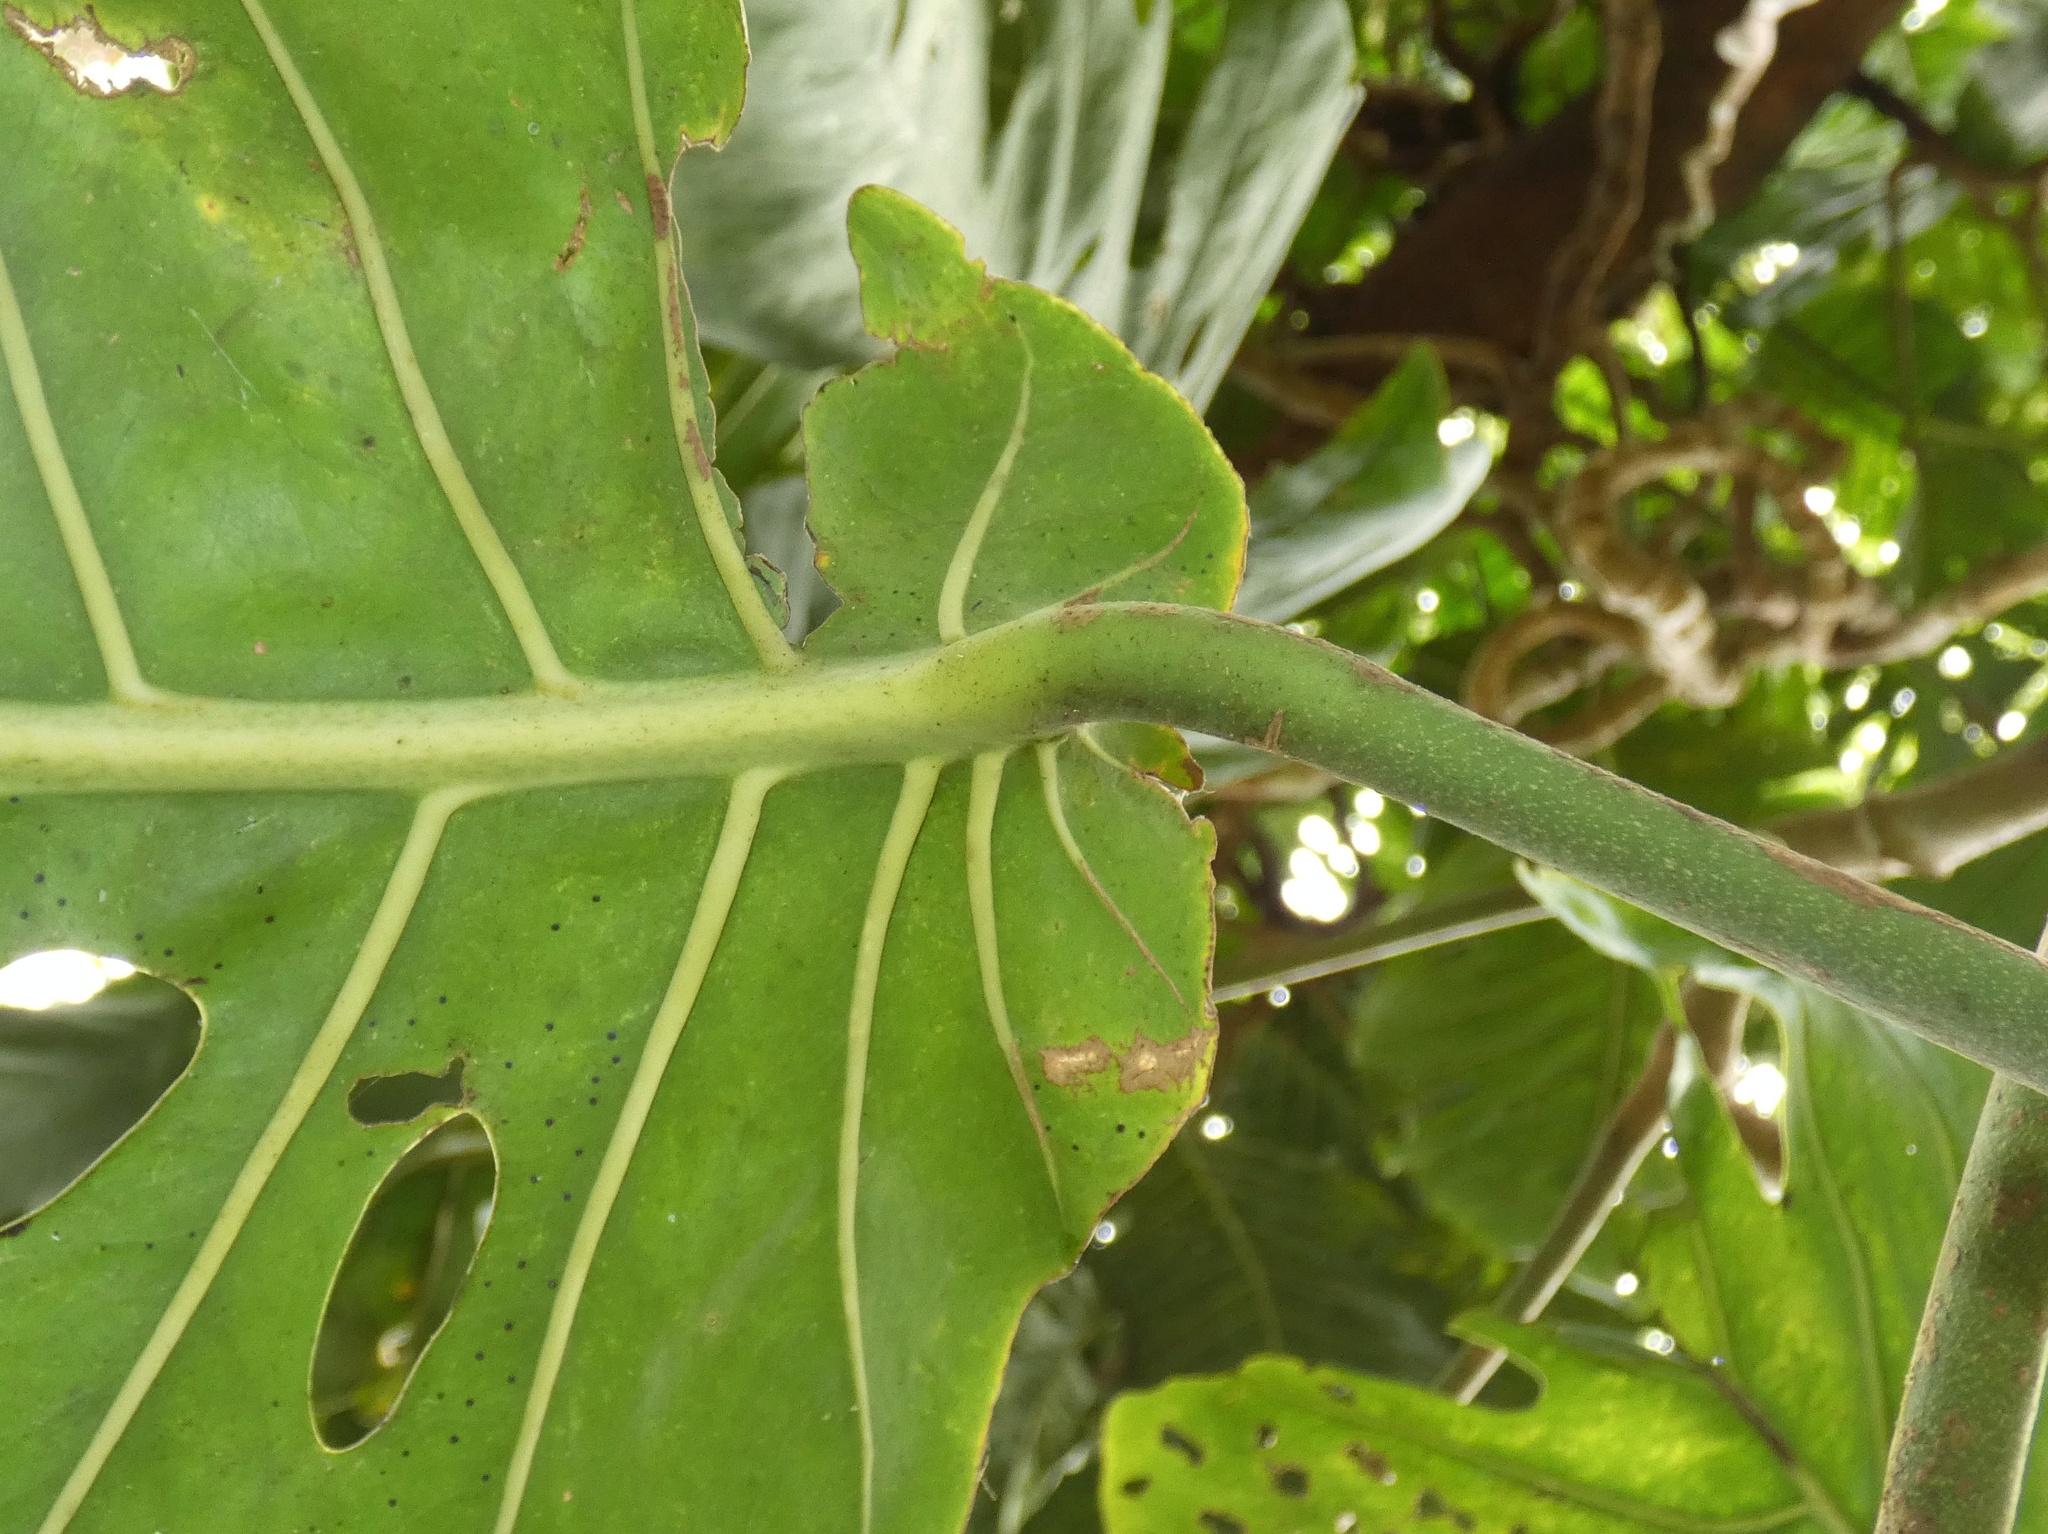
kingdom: Plantae
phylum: Tracheophyta
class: Liliopsida
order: Alismatales
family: Araceae
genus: Monstera
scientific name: Monstera dubia
